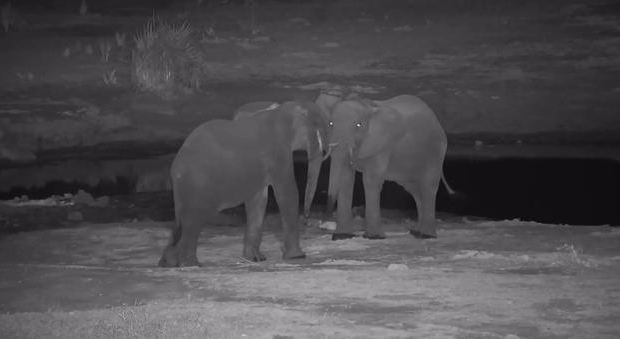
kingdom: Animalia
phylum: Chordata
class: Mammalia
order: Proboscidea
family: Elephantidae
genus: Loxodonta
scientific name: Loxodonta africana
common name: African elephant
